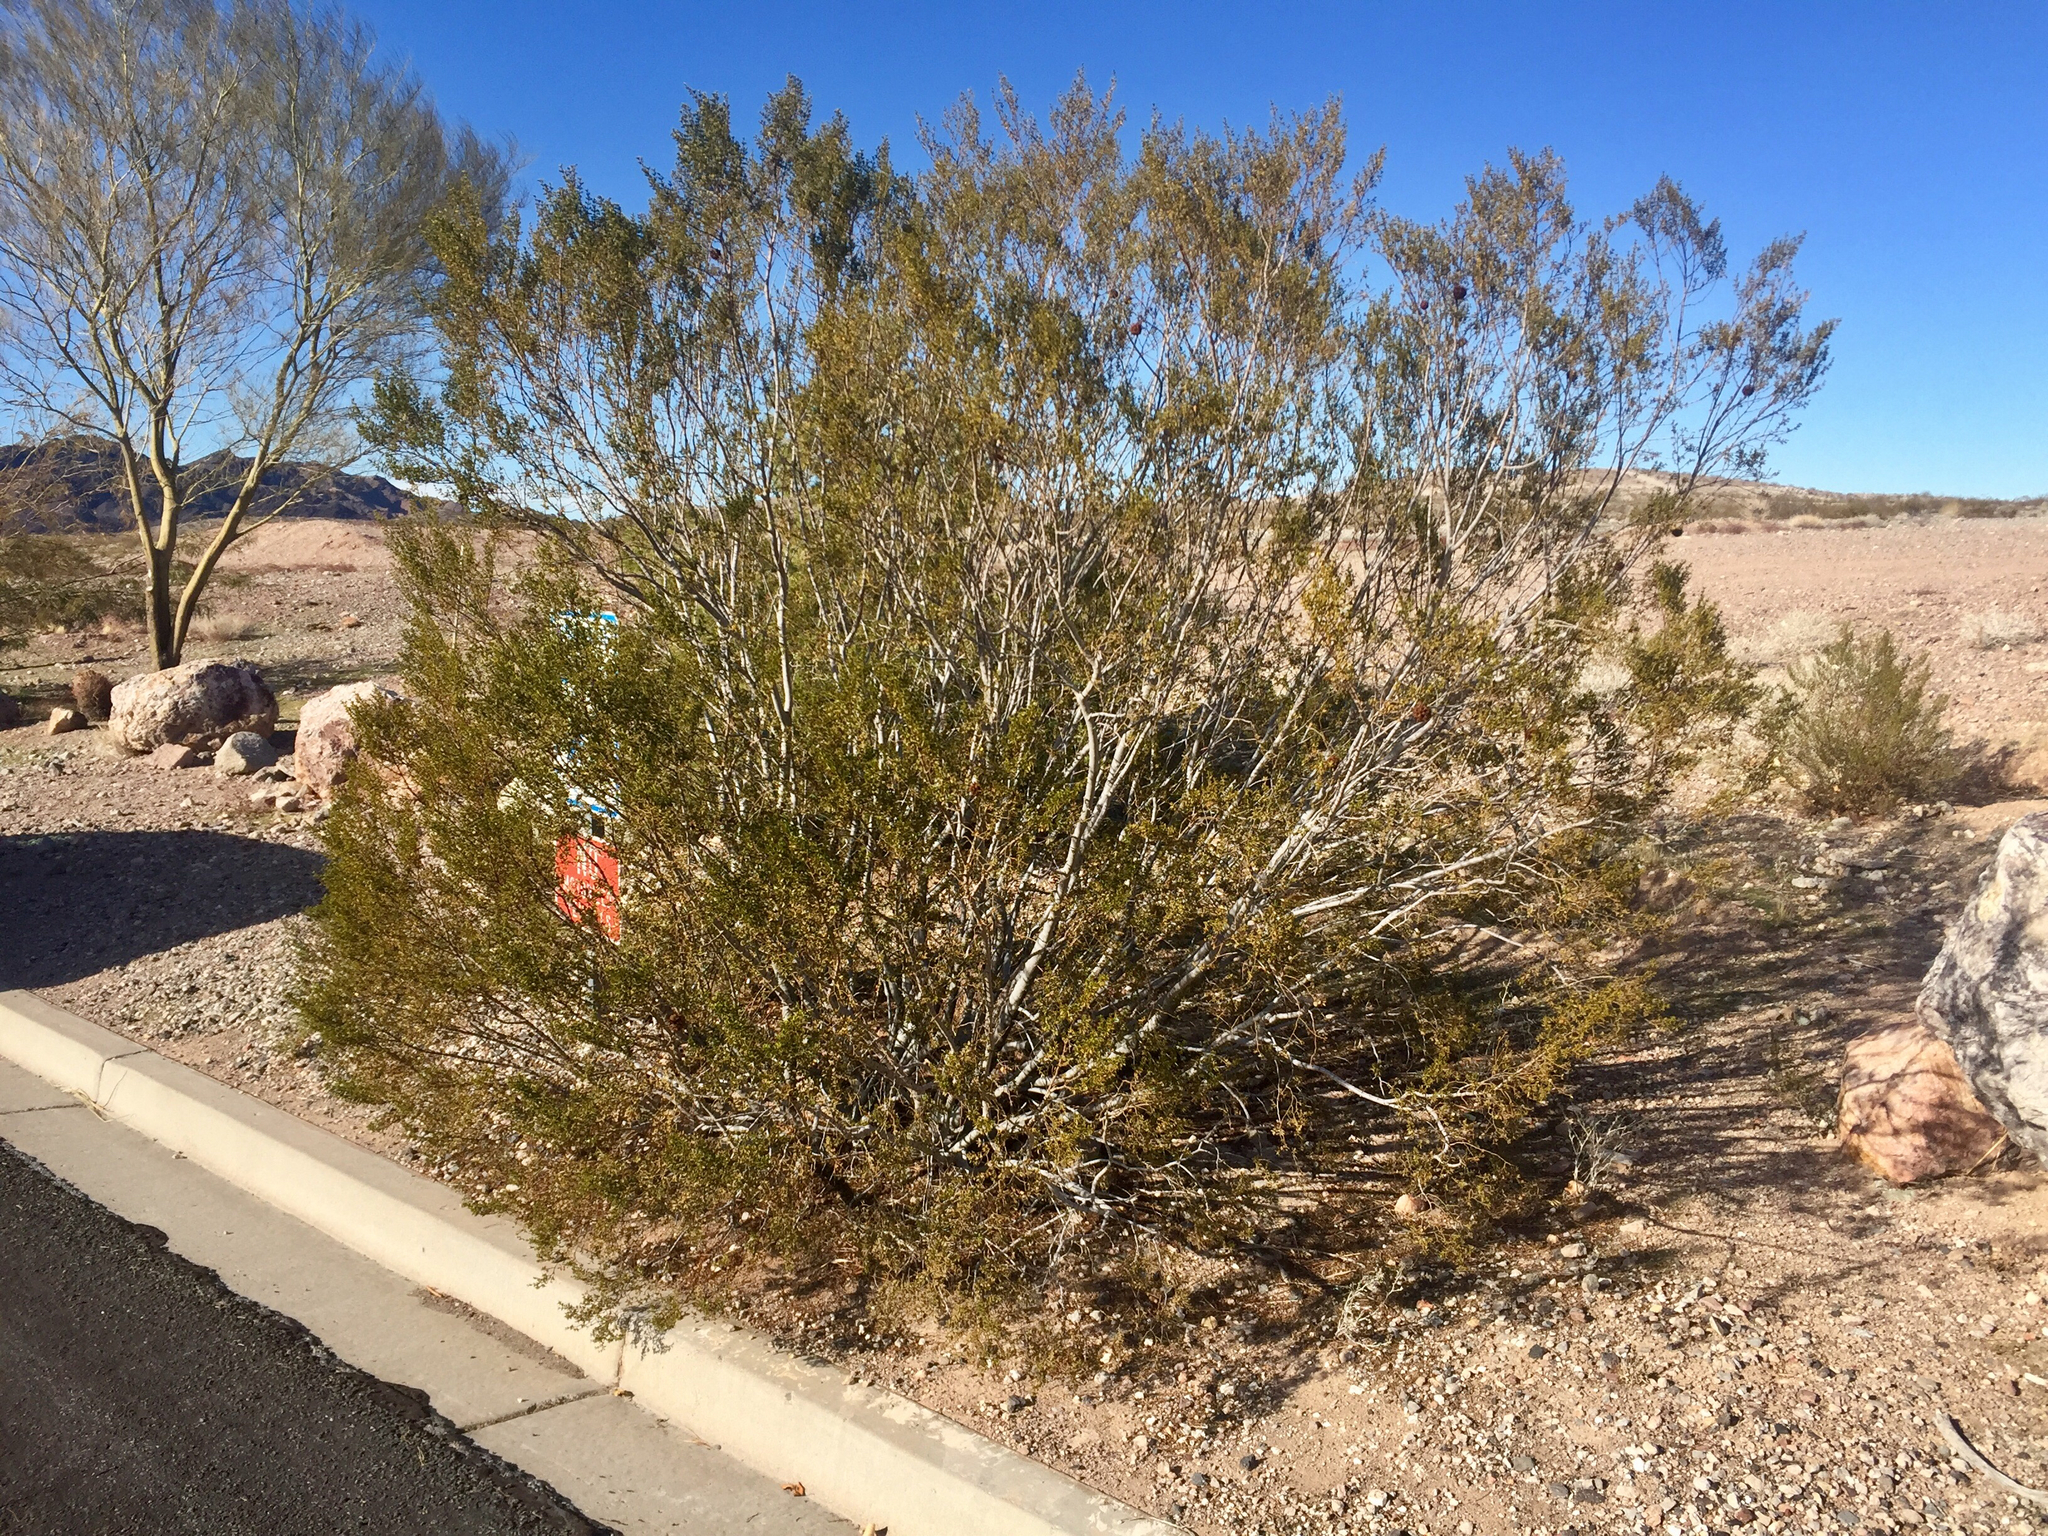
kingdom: Plantae
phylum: Tracheophyta
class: Magnoliopsida
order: Zygophyllales
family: Zygophyllaceae
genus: Larrea
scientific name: Larrea tridentata
